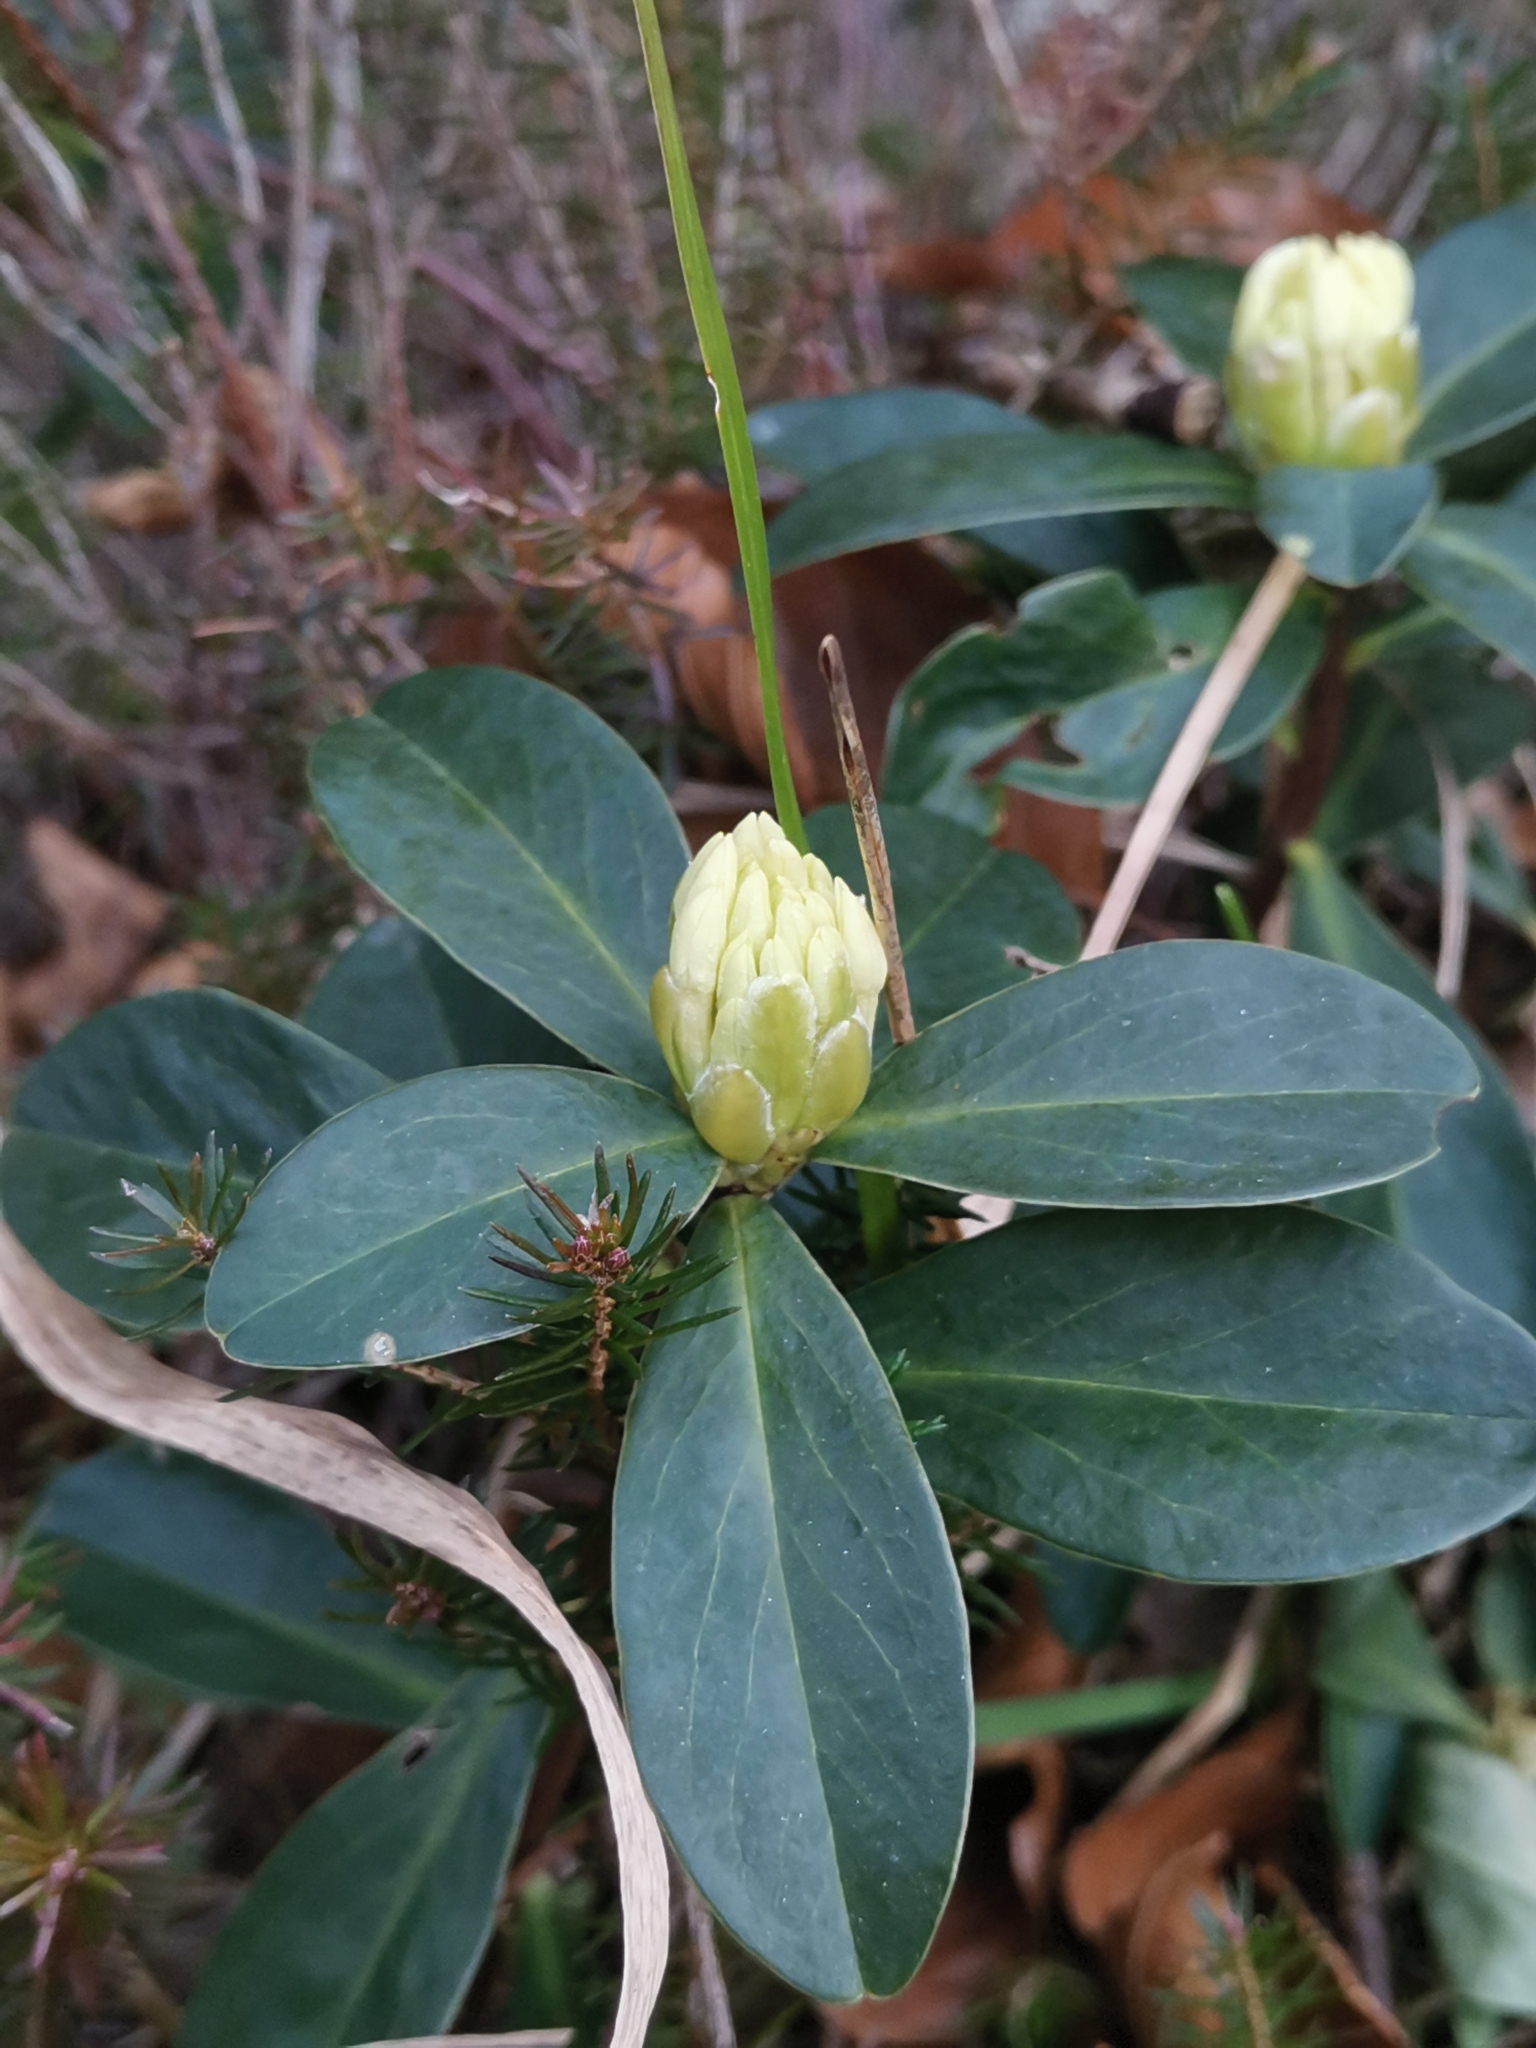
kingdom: Plantae
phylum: Tracheophyta
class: Magnoliopsida
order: Malvales
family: Thymelaeaceae
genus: Daphne
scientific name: Daphne blagayana
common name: Balkan daphne
